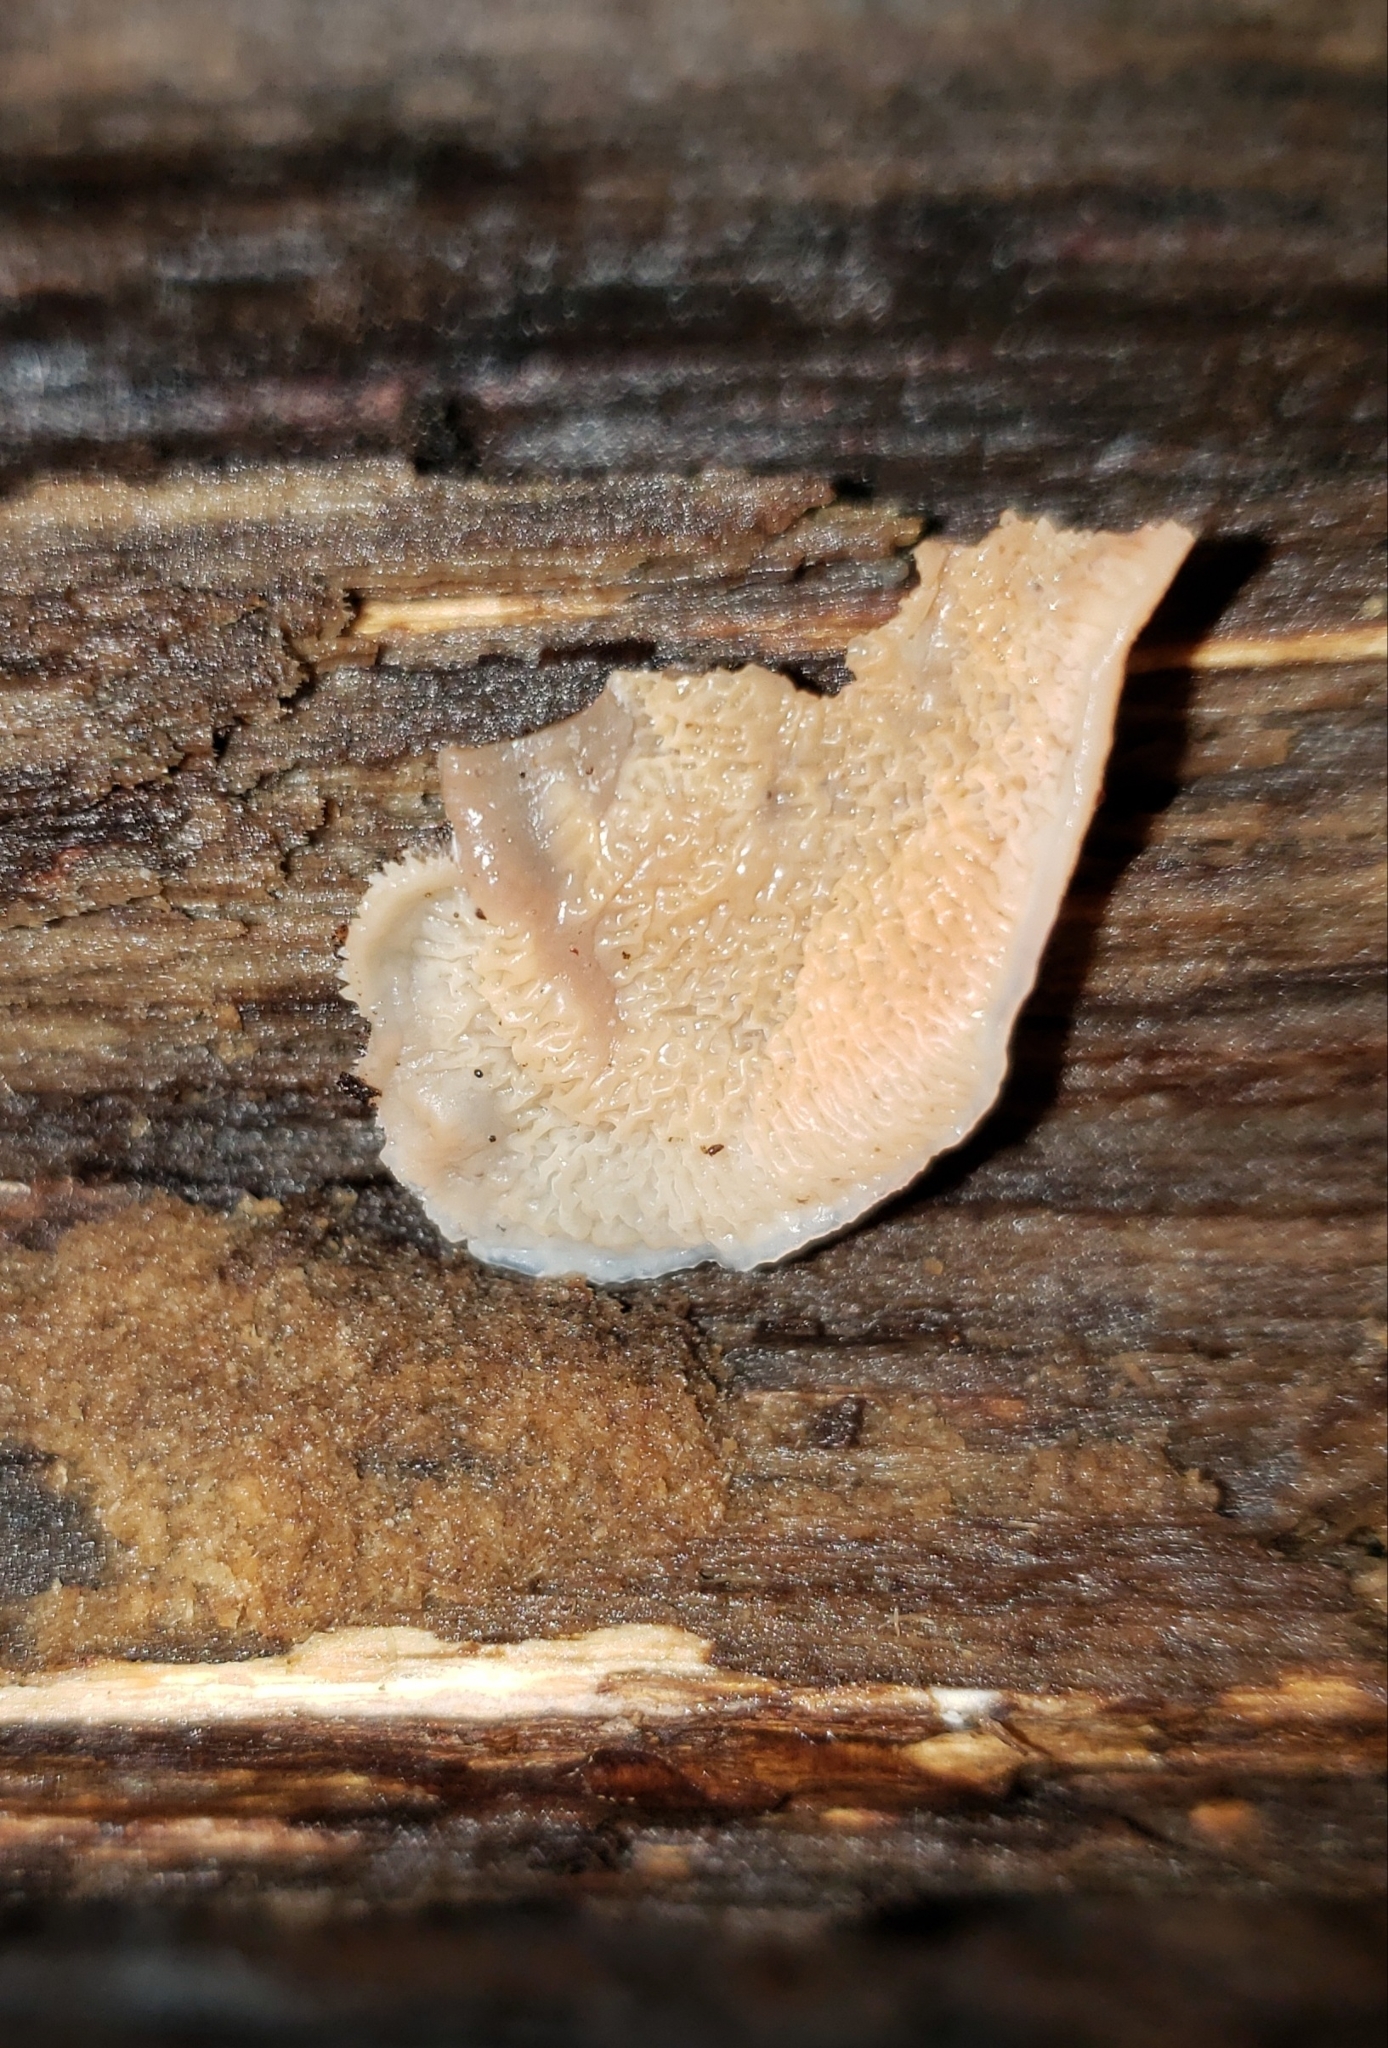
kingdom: Fungi
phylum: Basidiomycota
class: Agaricomycetes
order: Polyporales
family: Meruliaceae
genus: Phlebia
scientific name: Phlebia tremellosa
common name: Jelly rot
